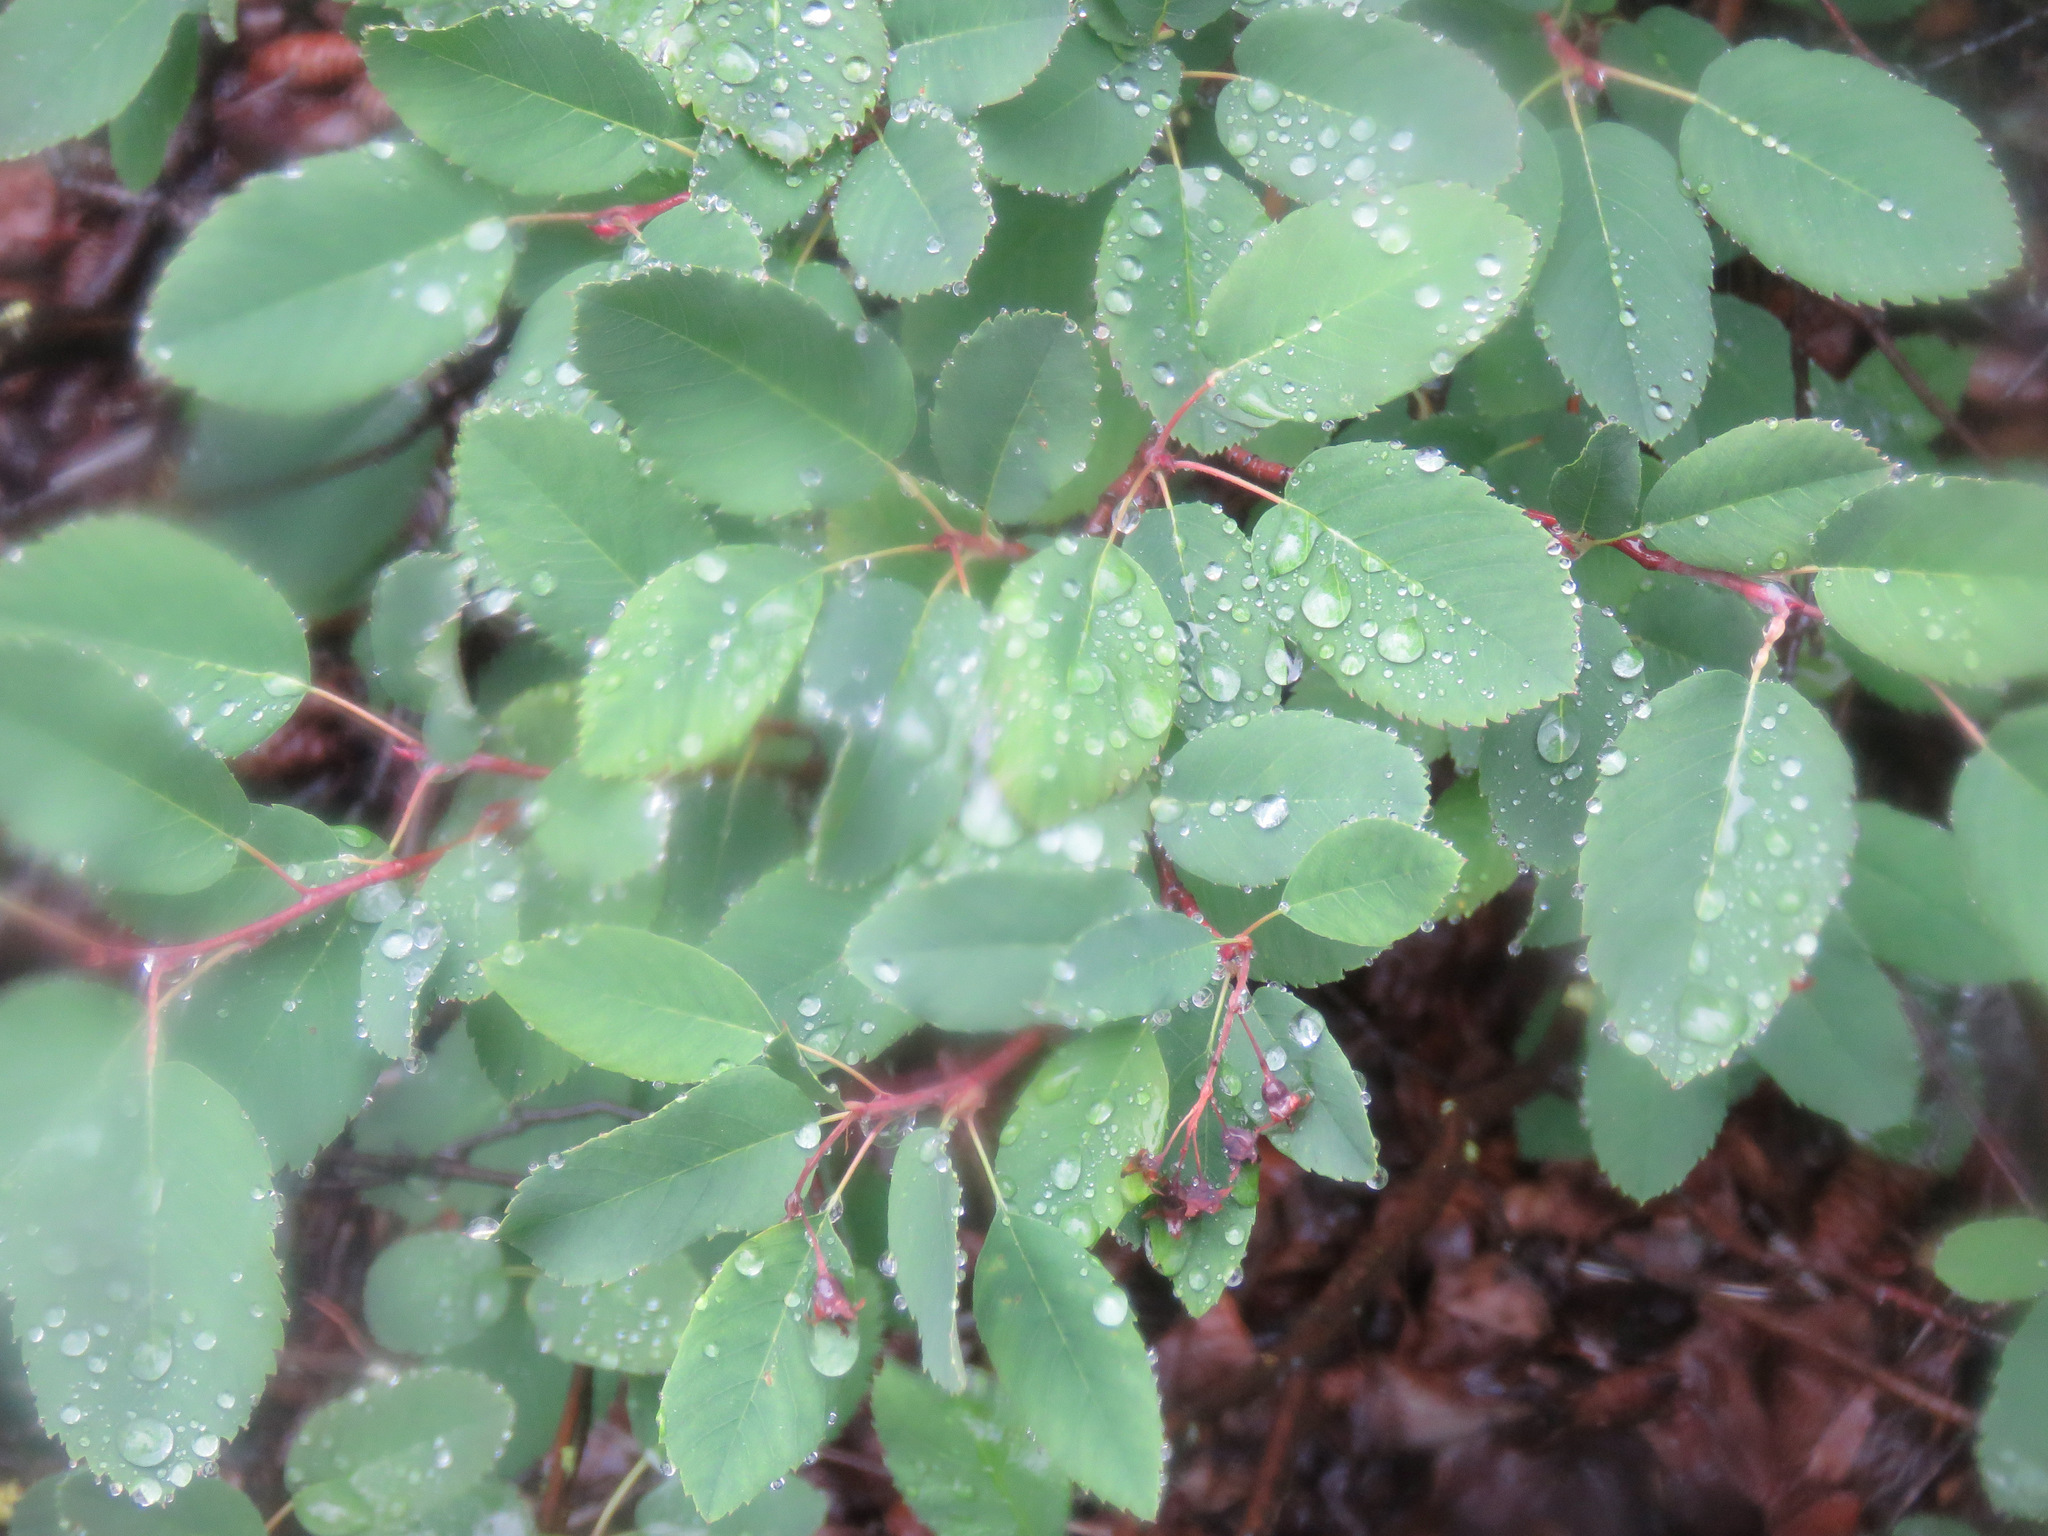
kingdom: Plantae
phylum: Tracheophyta
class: Magnoliopsida
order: Rosales
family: Rosaceae
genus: Amelanchier
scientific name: Amelanchier alnifolia
